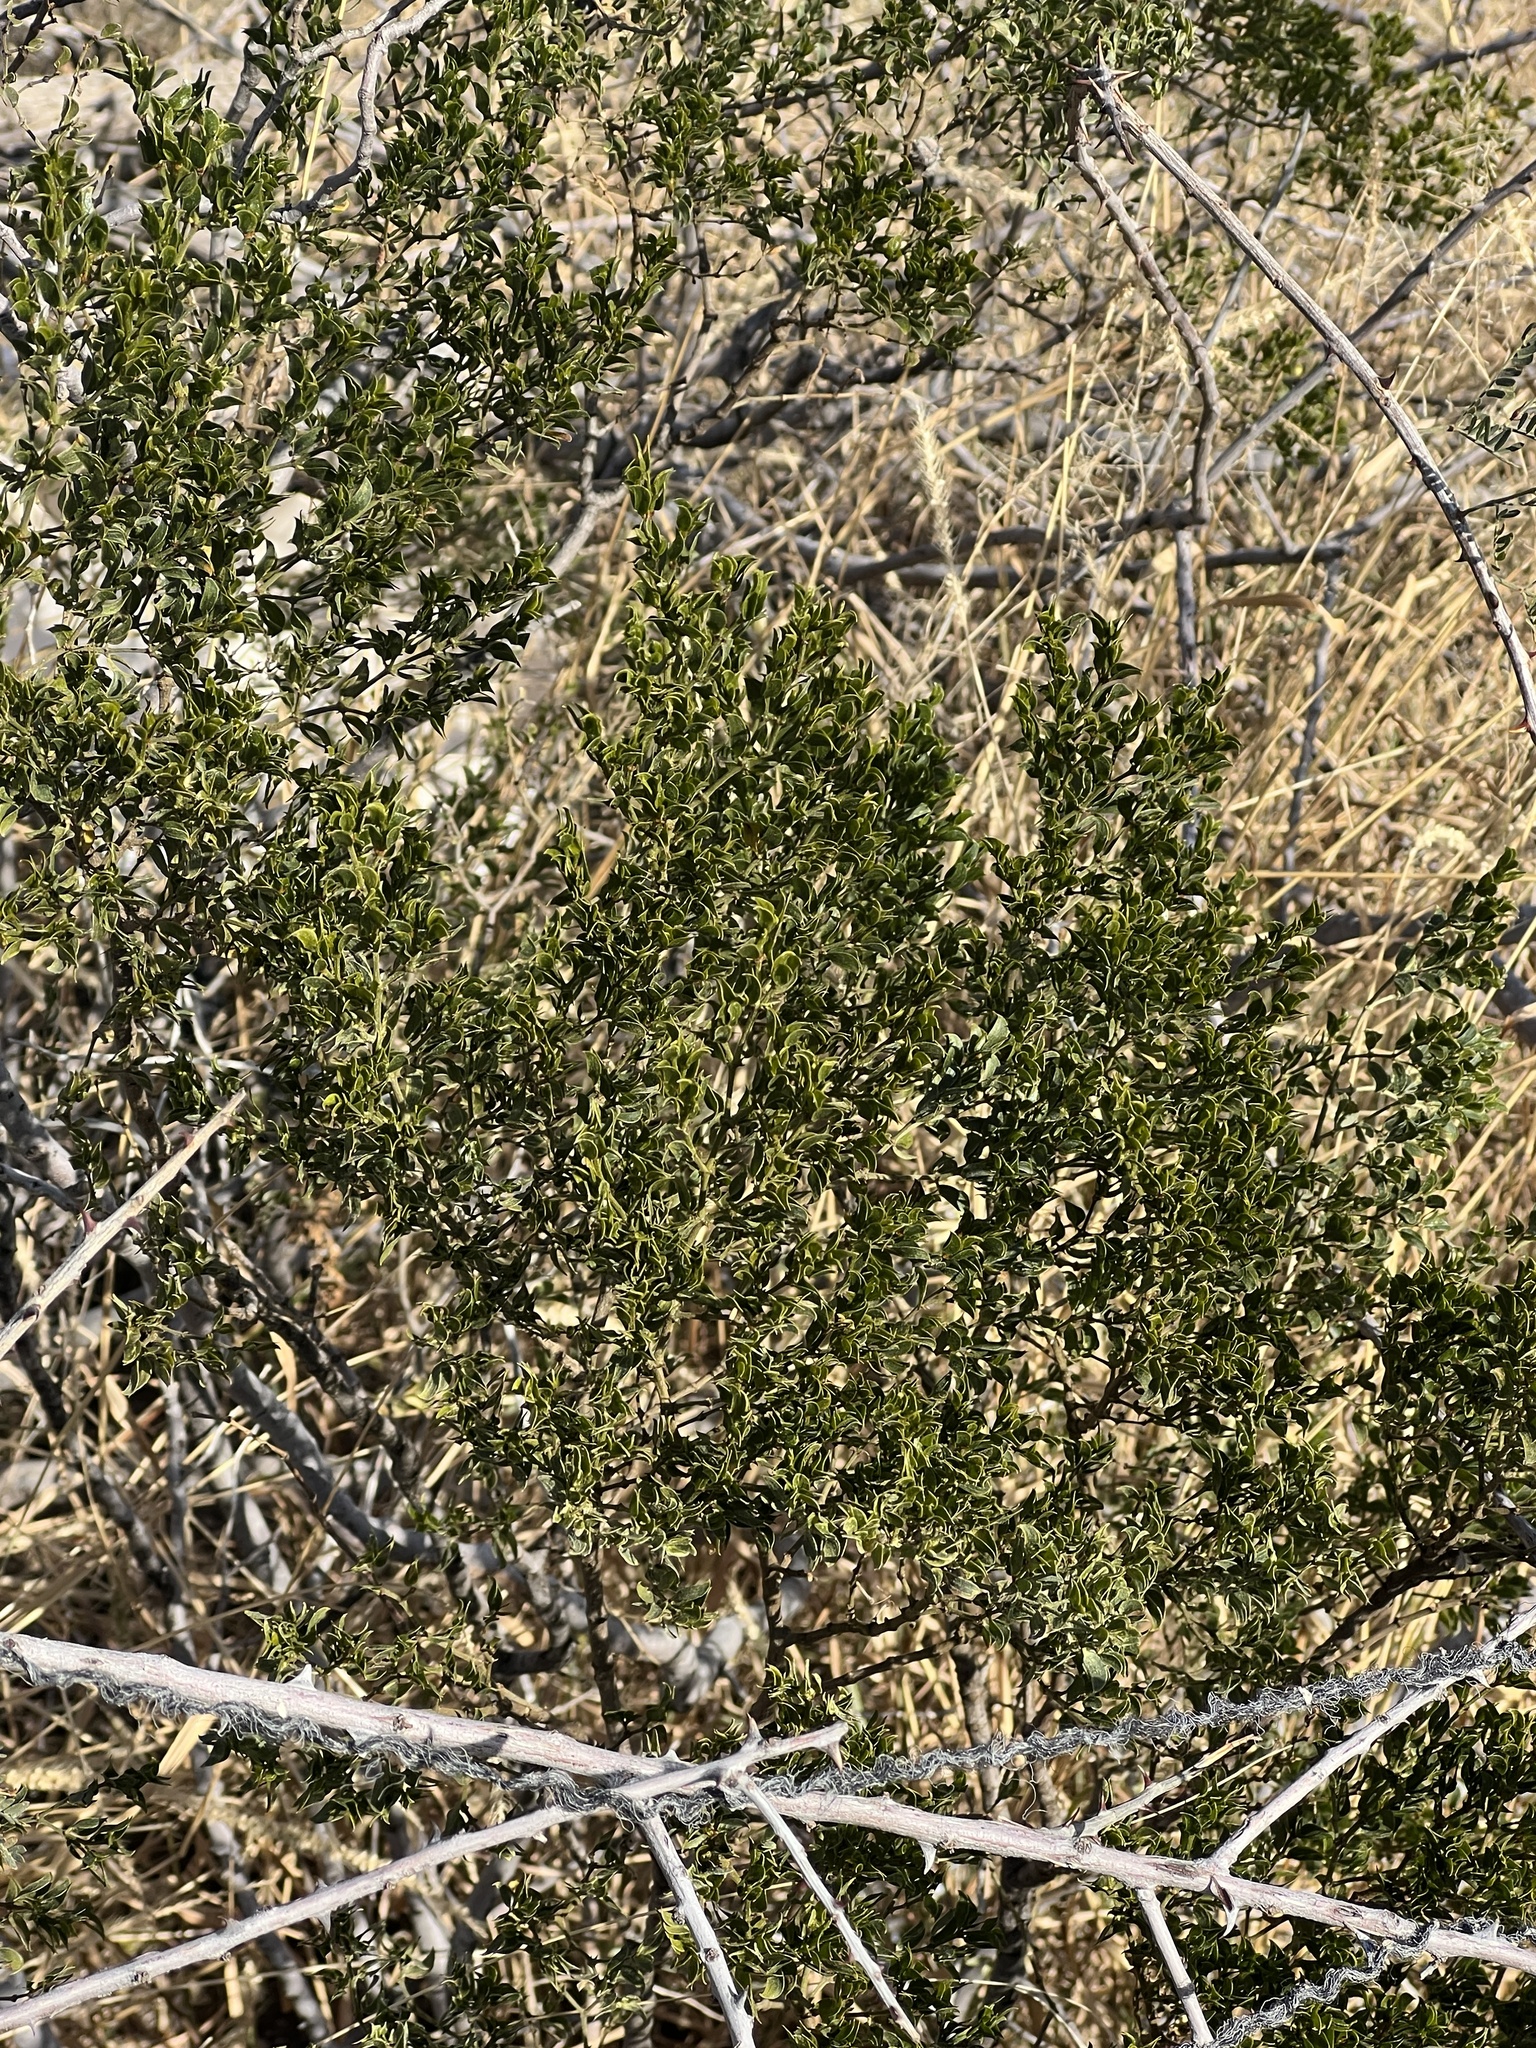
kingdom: Plantae
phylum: Tracheophyta
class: Magnoliopsida
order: Zygophyllales
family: Zygophyllaceae
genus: Larrea
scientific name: Larrea tridentata
